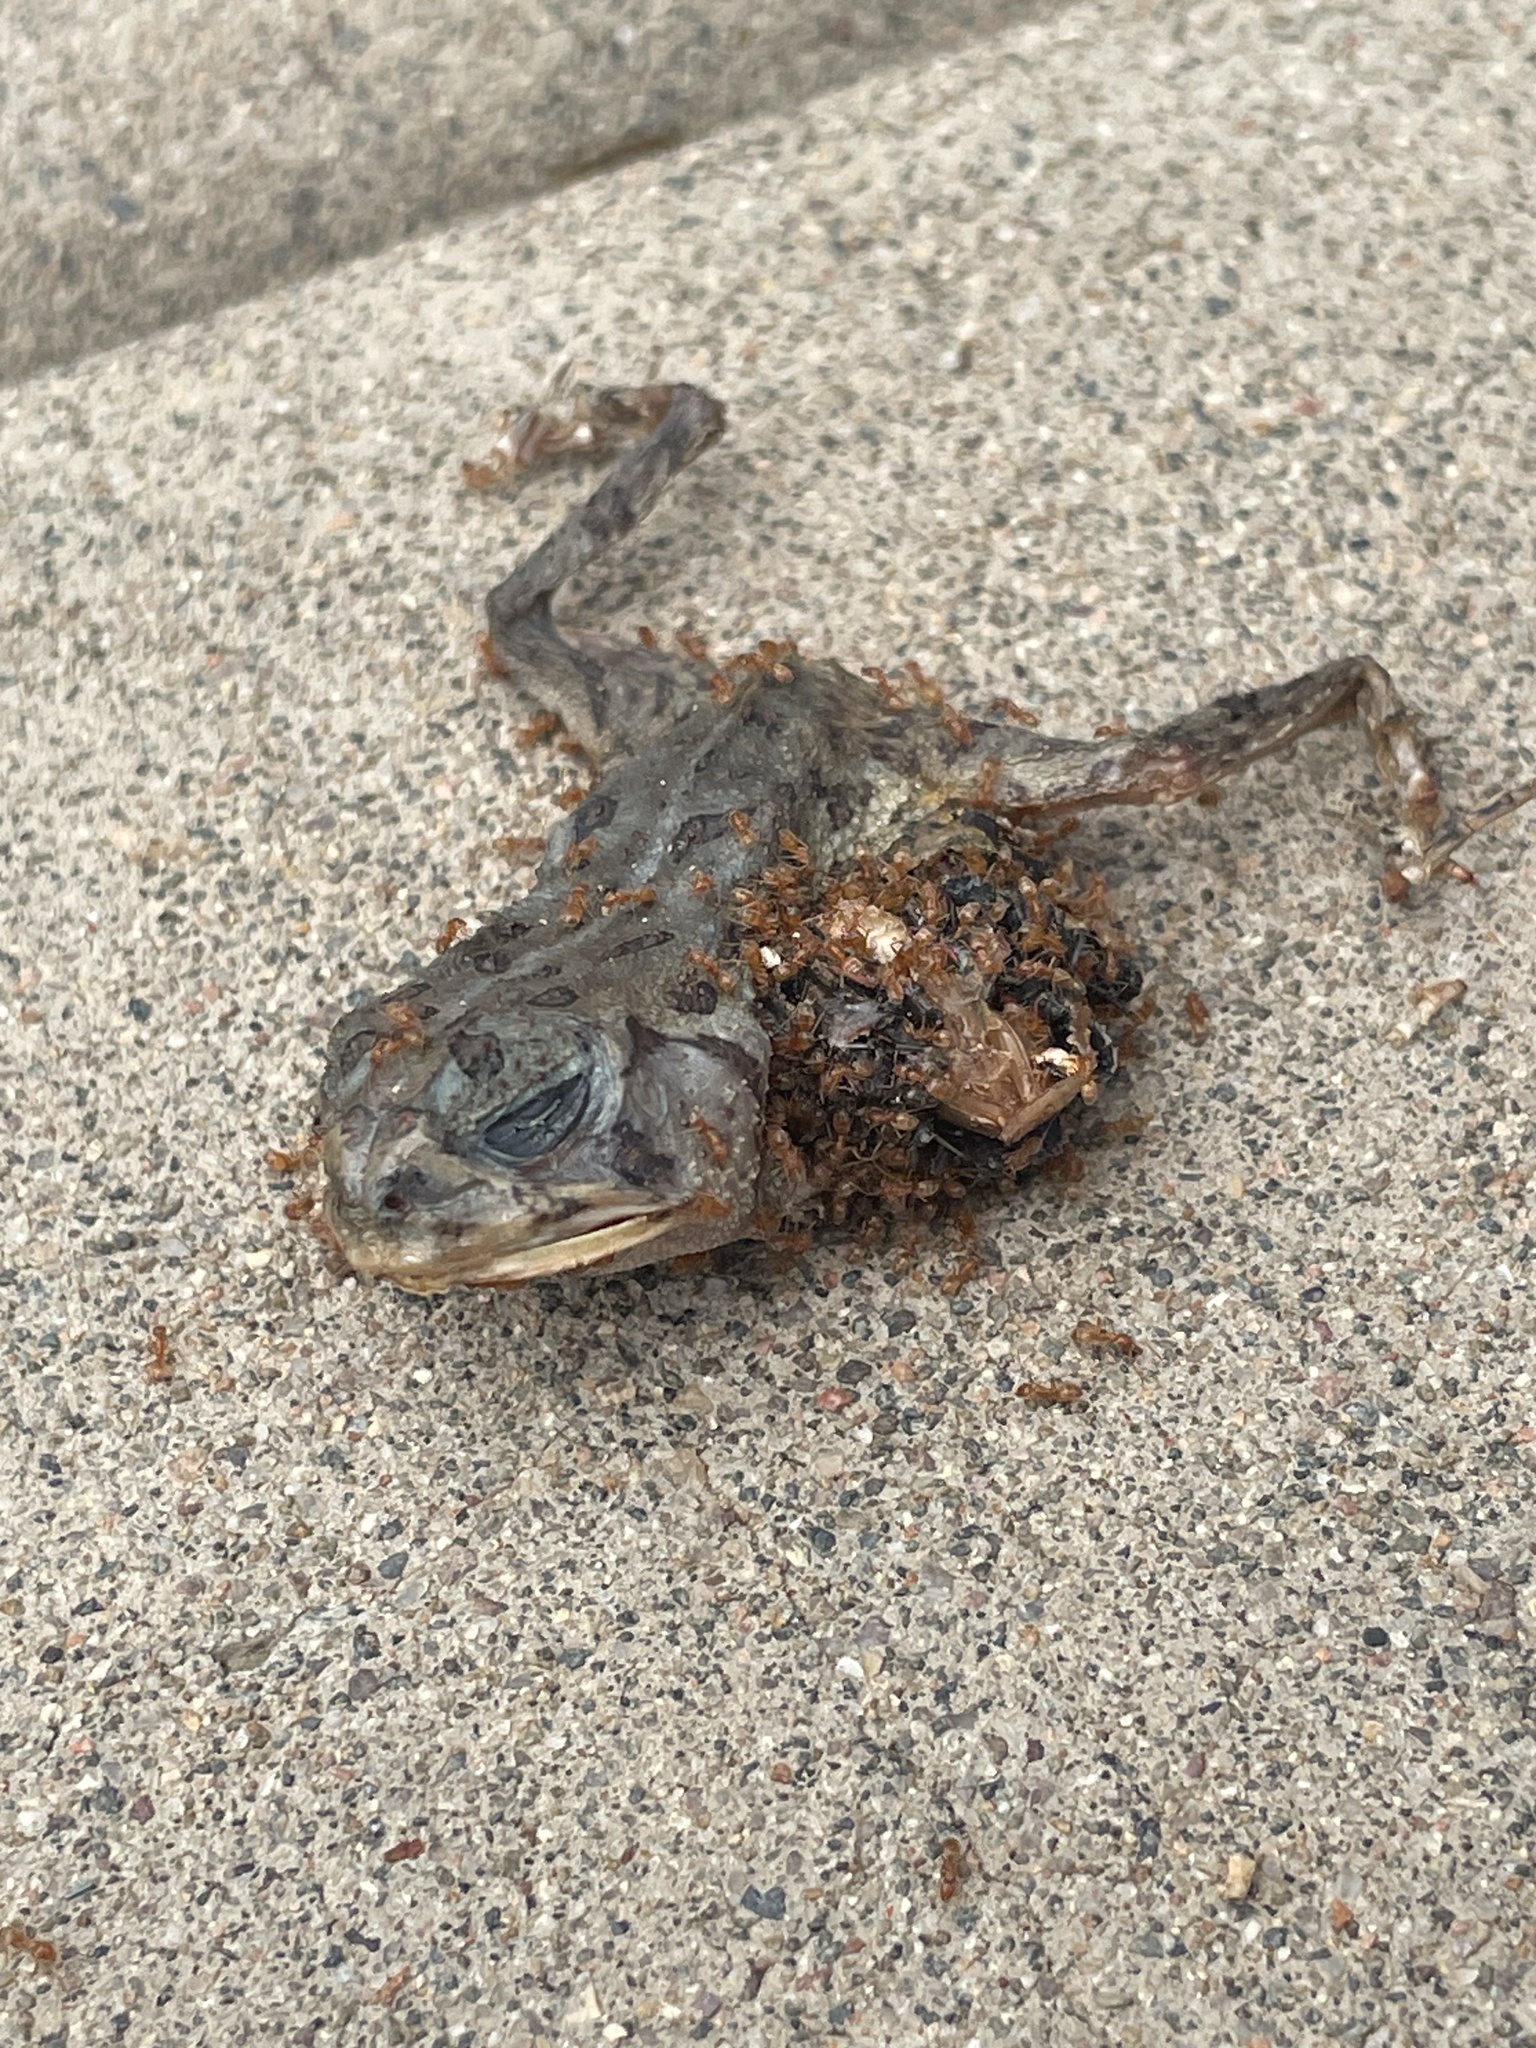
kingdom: Animalia
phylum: Arthropoda
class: Insecta
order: Hymenoptera
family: Formicidae
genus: Forelius
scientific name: Forelius
